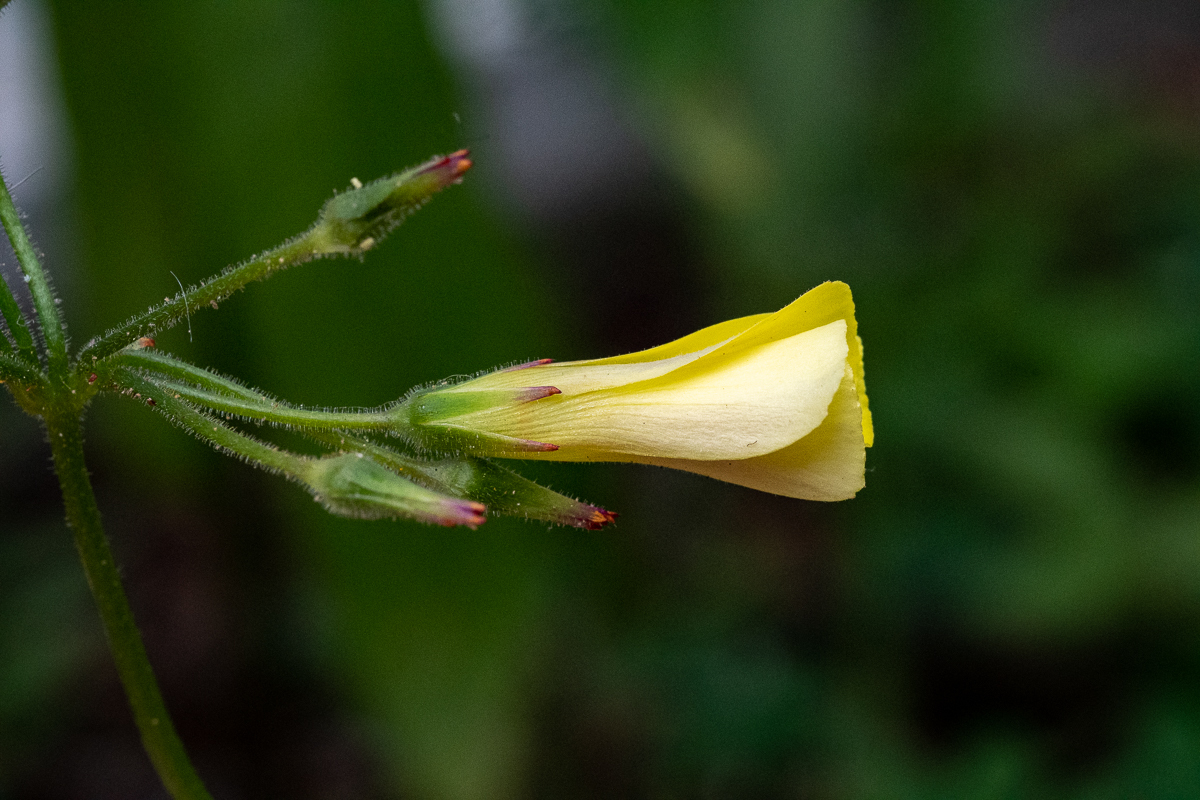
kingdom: Plantae
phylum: Tracheophyta
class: Magnoliopsida
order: Oxalidales
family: Oxalidaceae
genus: Oxalis
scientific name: Oxalis pes-caprae
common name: Bermuda-buttercup
